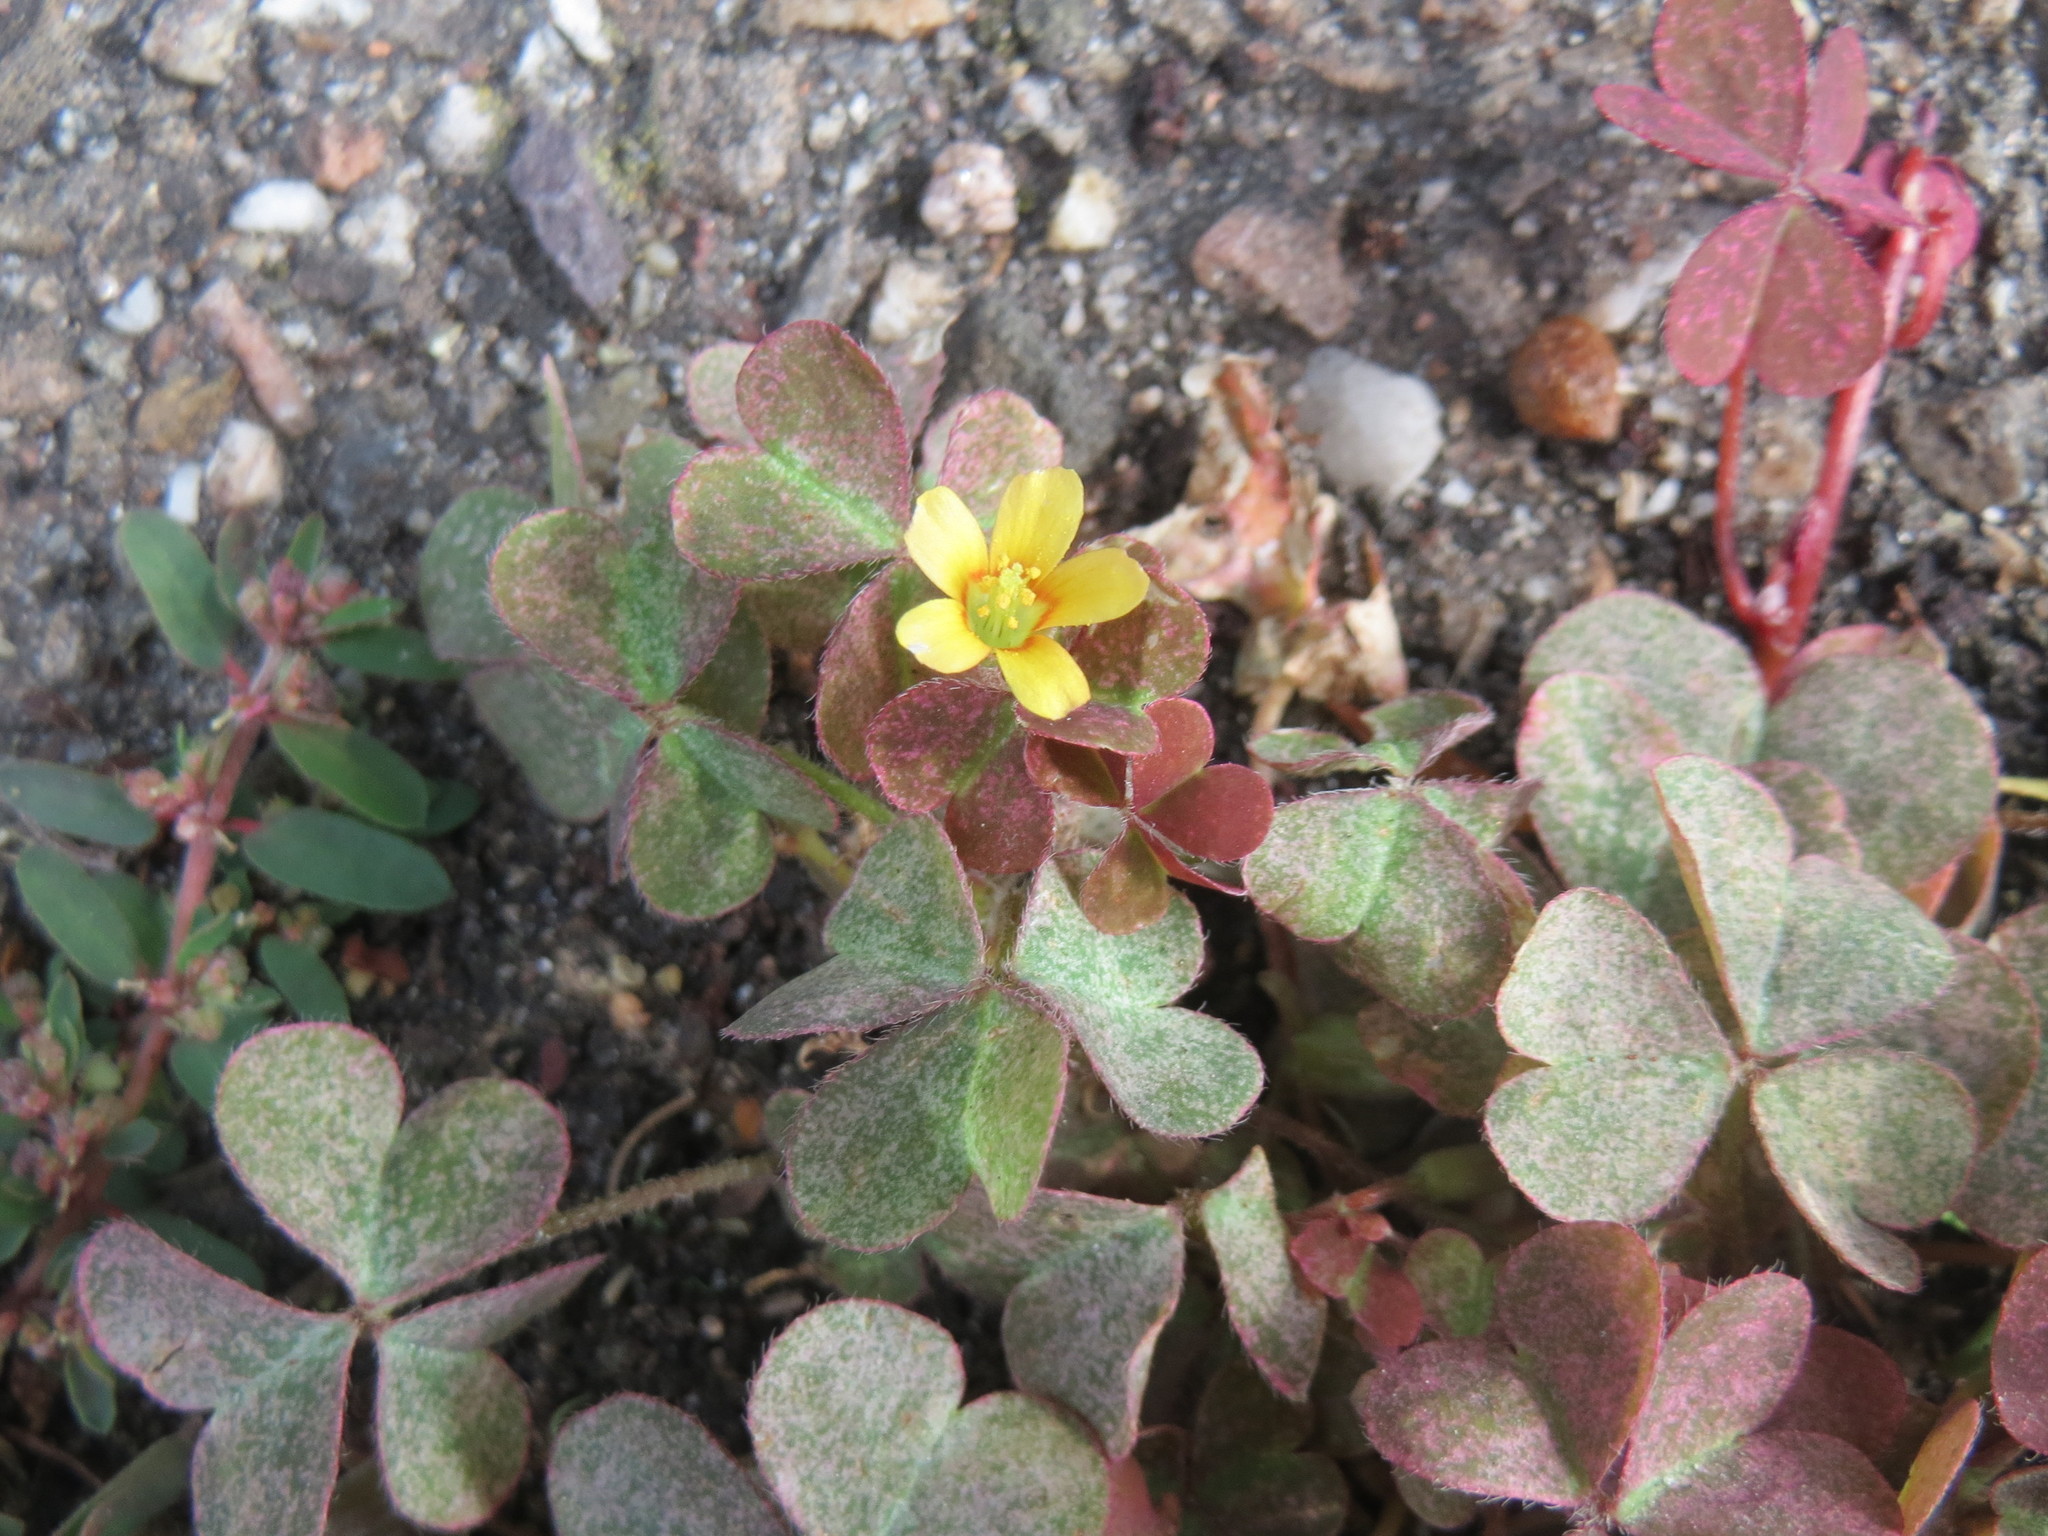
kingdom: Plantae
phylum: Tracheophyta
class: Magnoliopsida
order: Oxalidales
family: Oxalidaceae
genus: Oxalis
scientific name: Oxalis corniculata
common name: Procumbent yellow-sorrel
